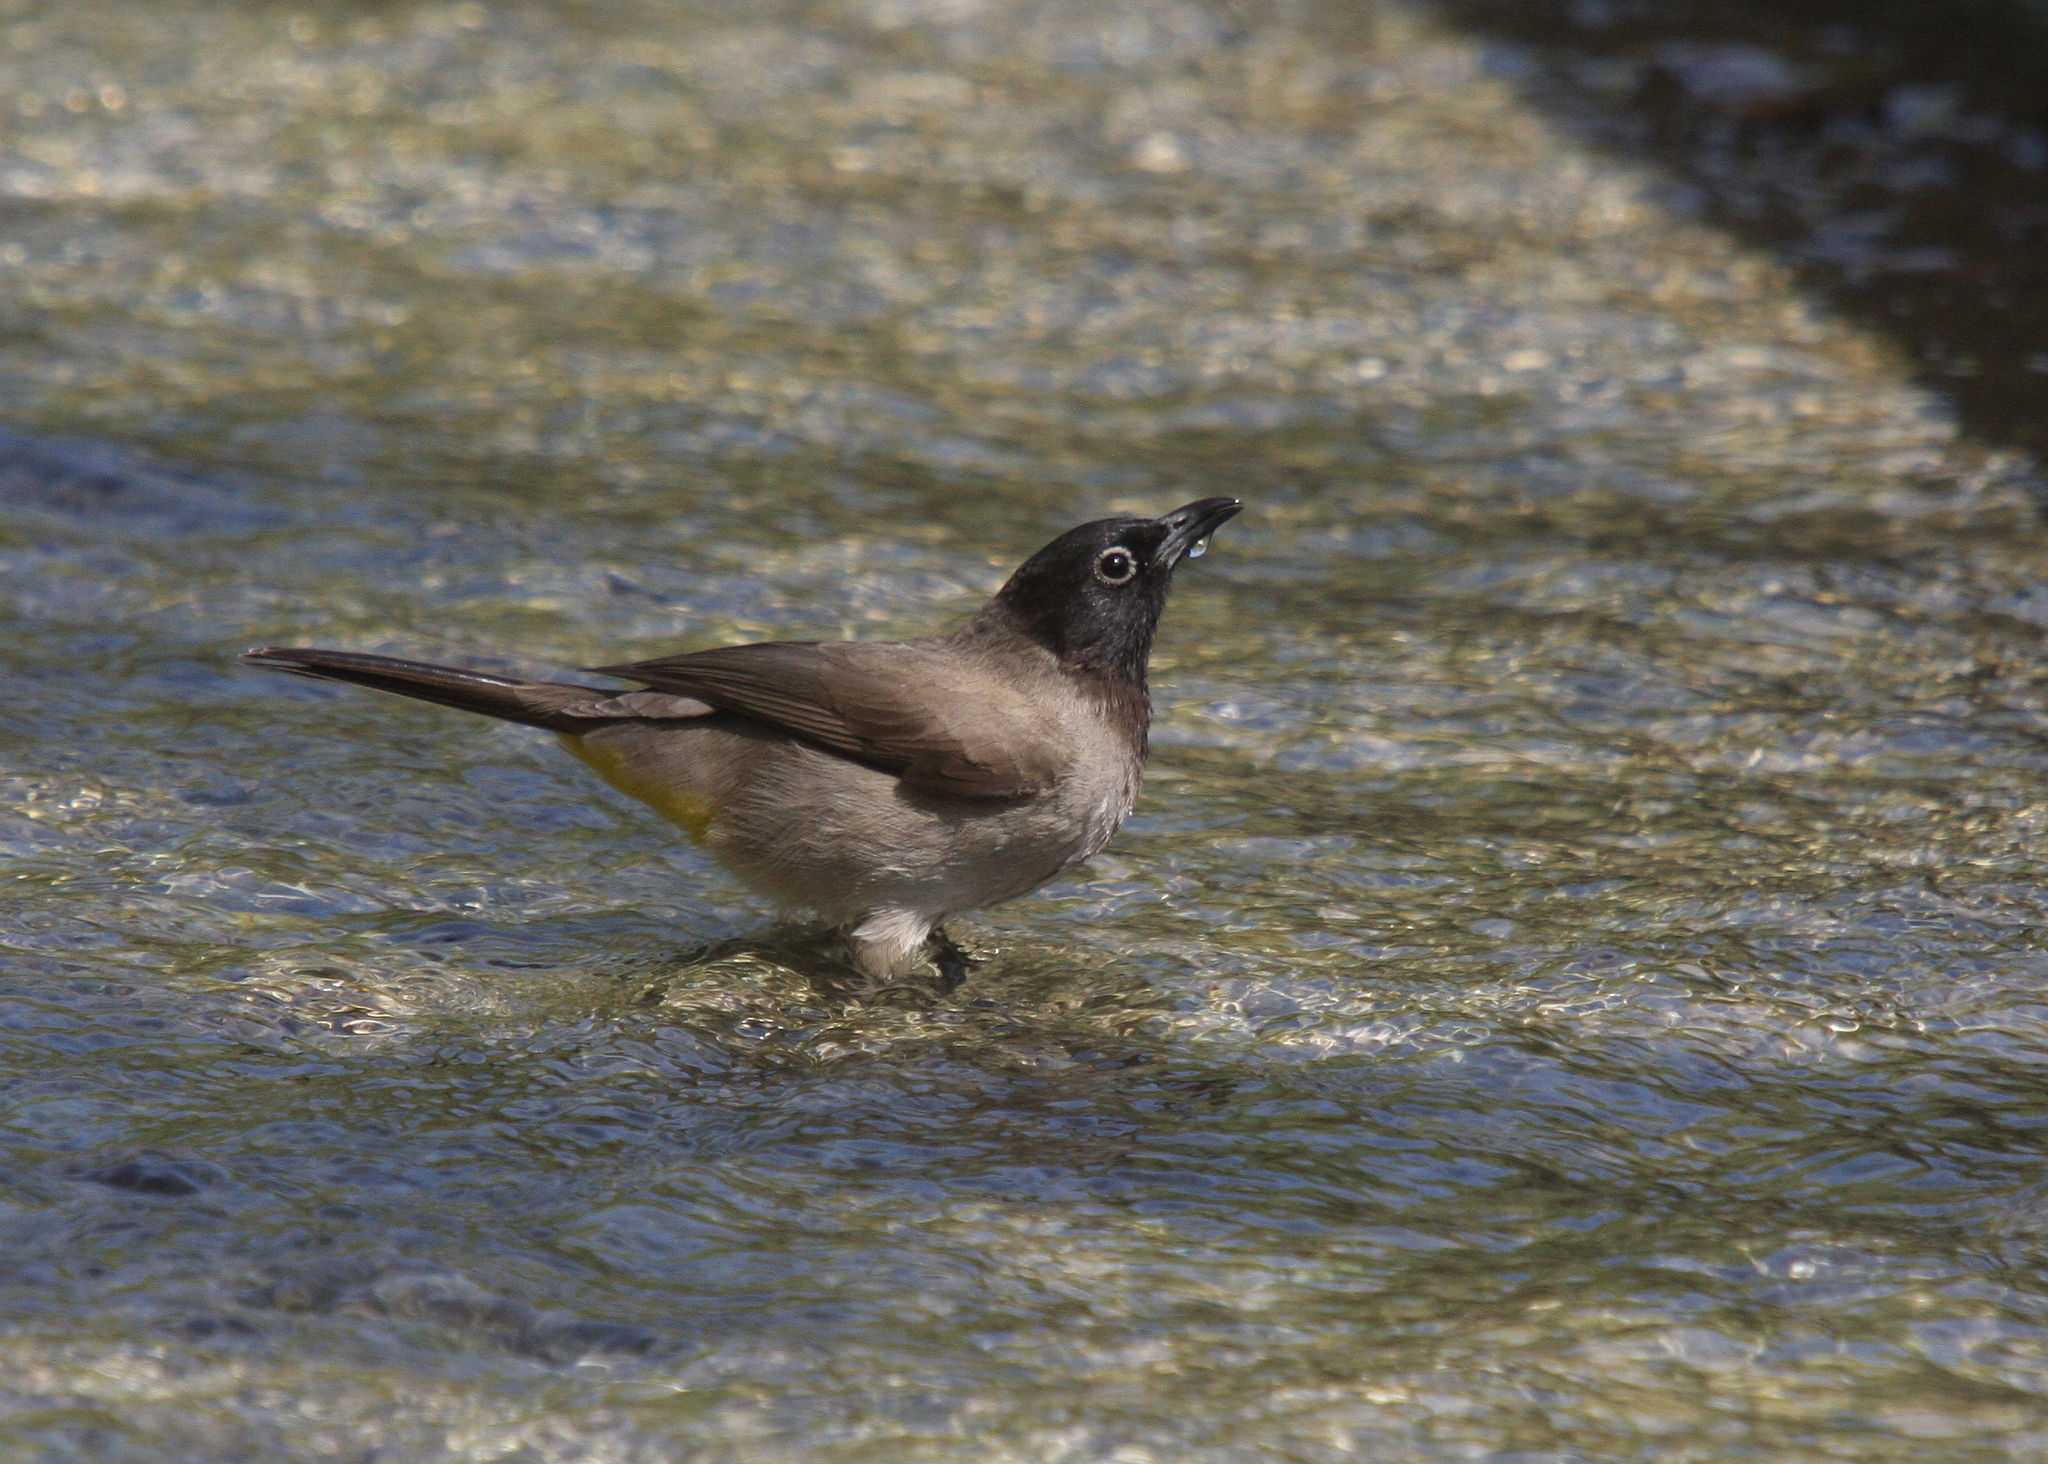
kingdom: Animalia
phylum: Chordata
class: Aves
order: Passeriformes
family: Pycnonotidae
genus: Pycnonotus
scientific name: Pycnonotus xanthopygos
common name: White-spectacled bulbul
